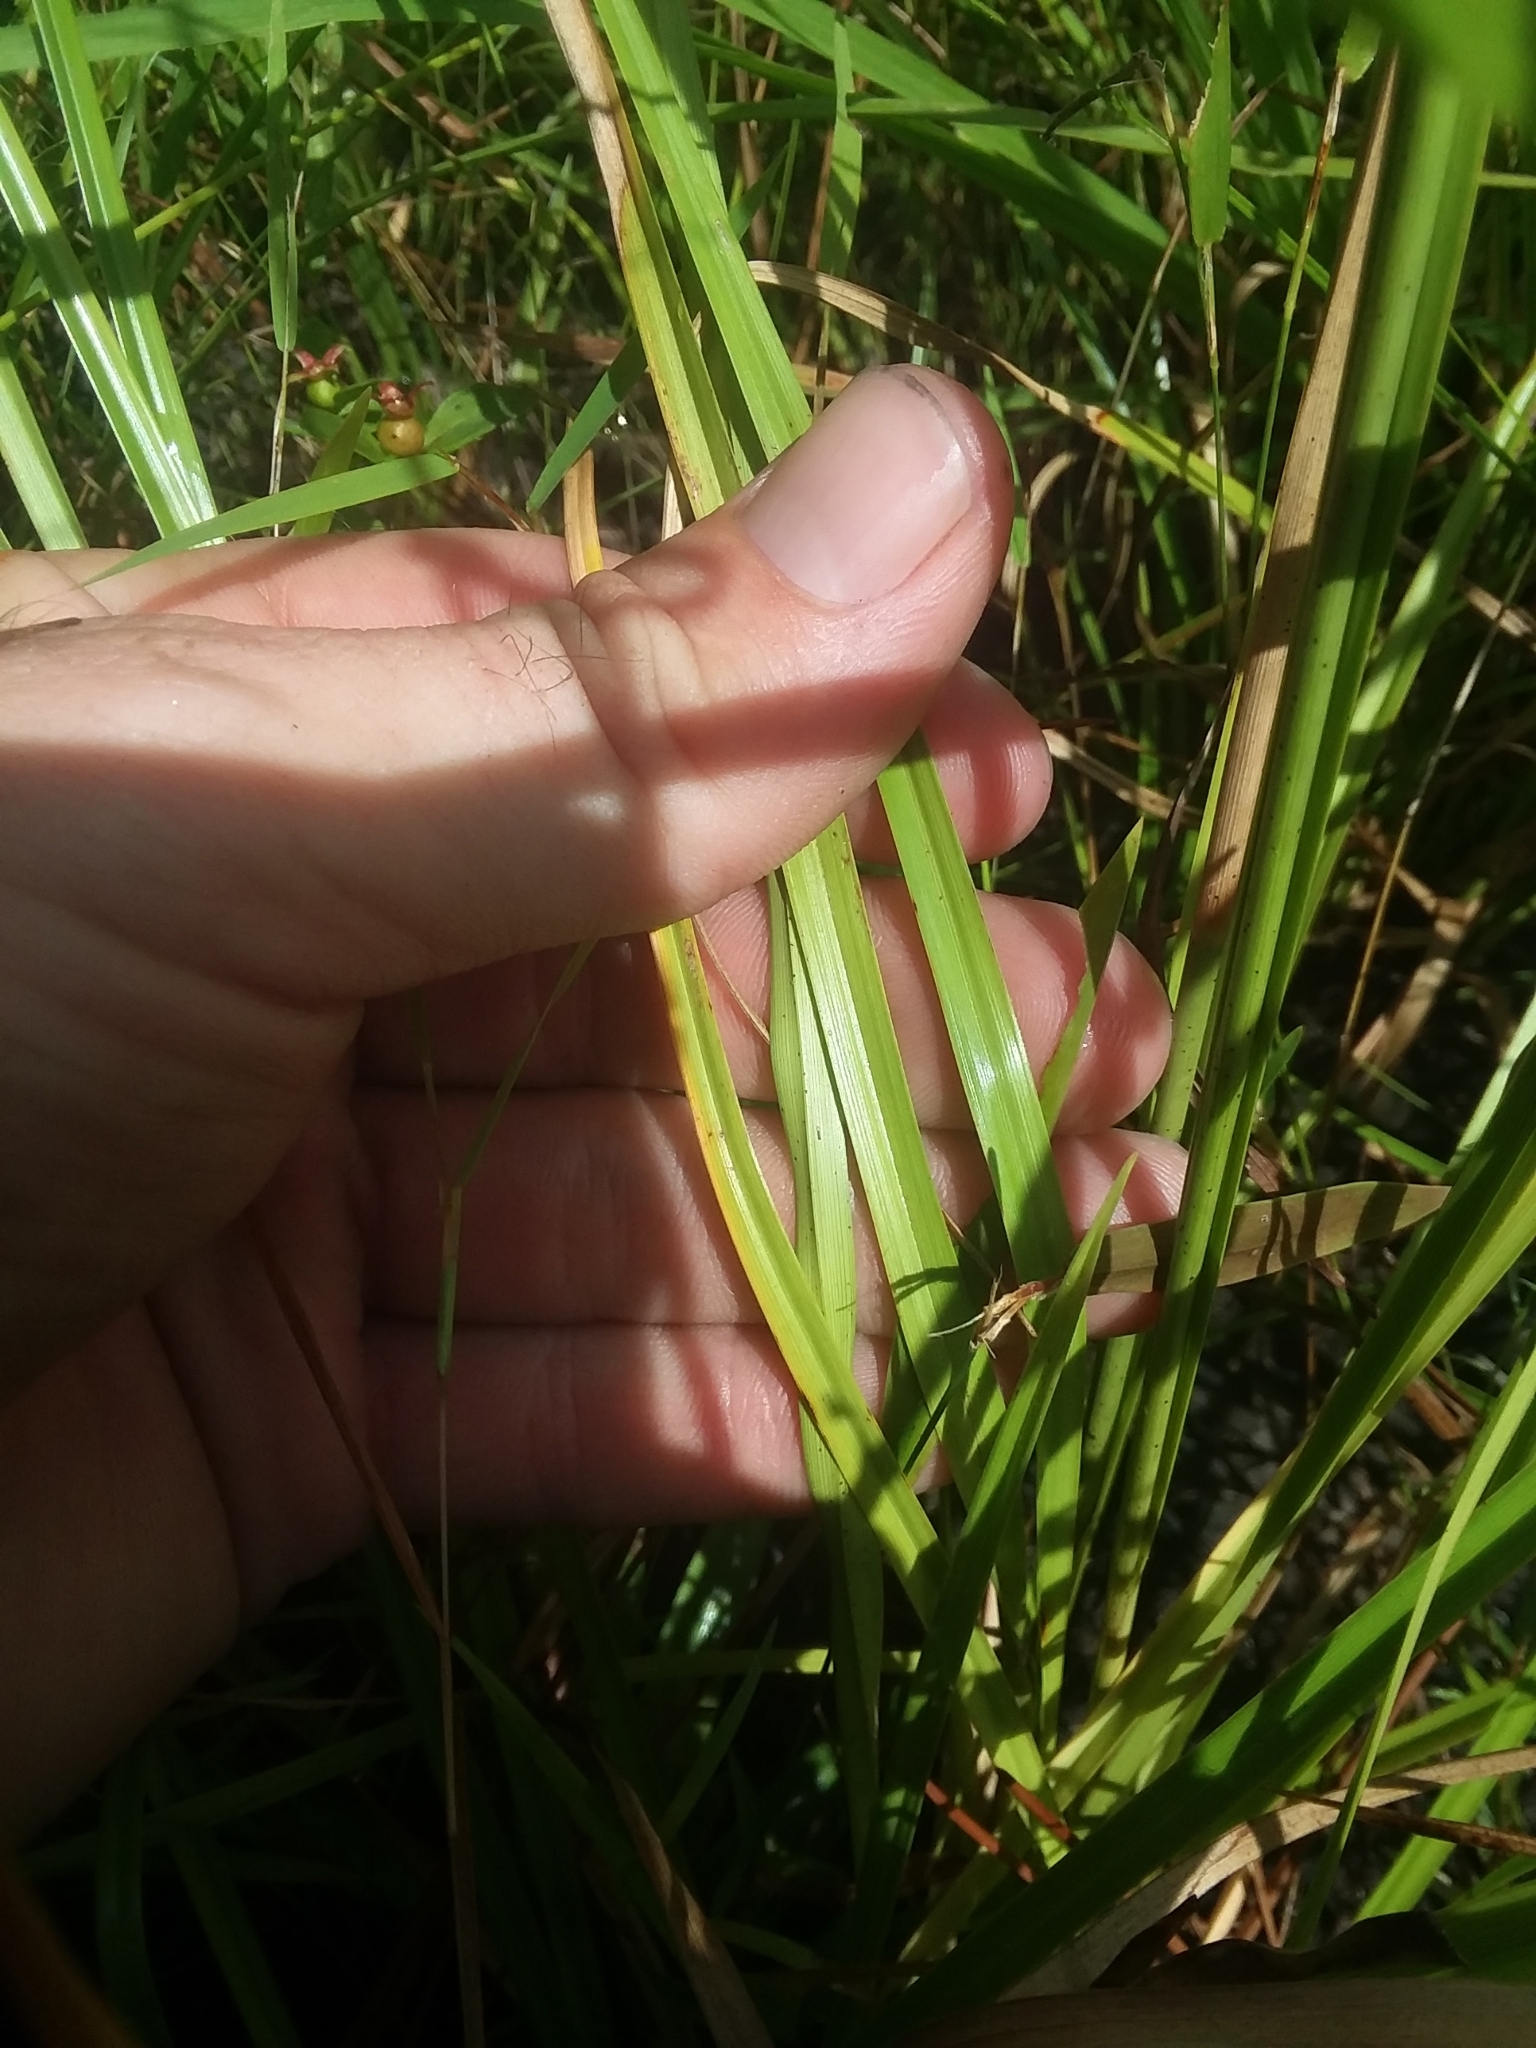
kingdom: Plantae
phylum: Tracheophyta
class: Liliopsida
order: Poales
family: Cyperaceae
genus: Rhynchospora
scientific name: Rhynchospora compressa
